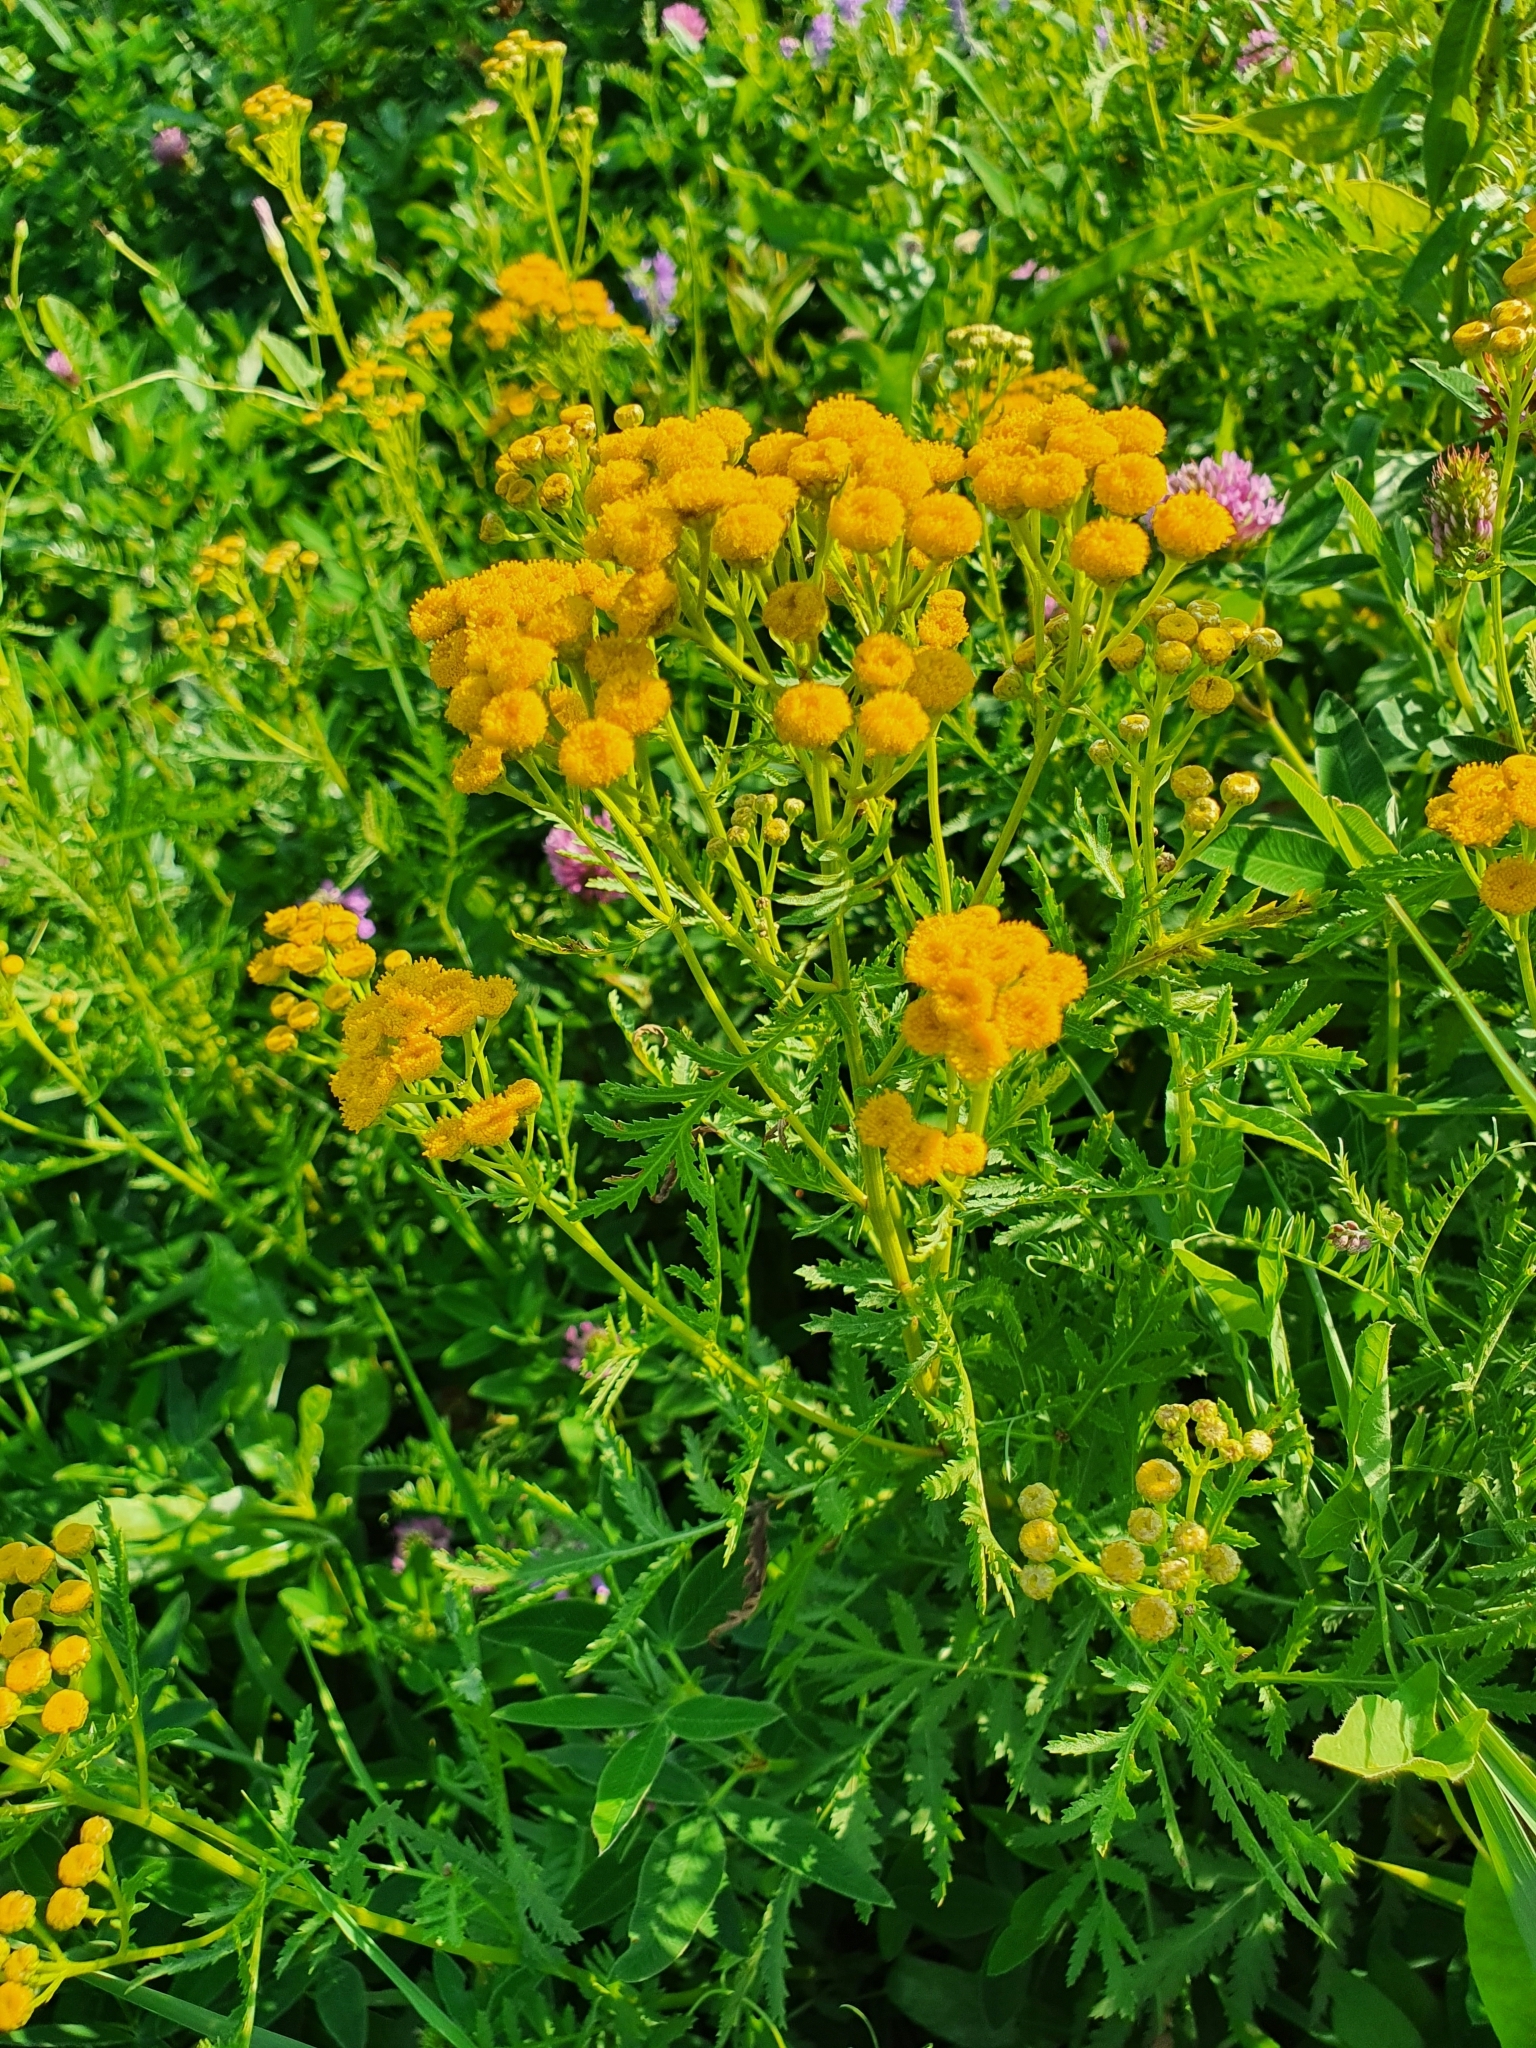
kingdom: Plantae
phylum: Tracheophyta
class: Magnoliopsida
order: Asterales
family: Asteraceae
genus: Tanacetum
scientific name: Tanacetum vulgare
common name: Common tansy
